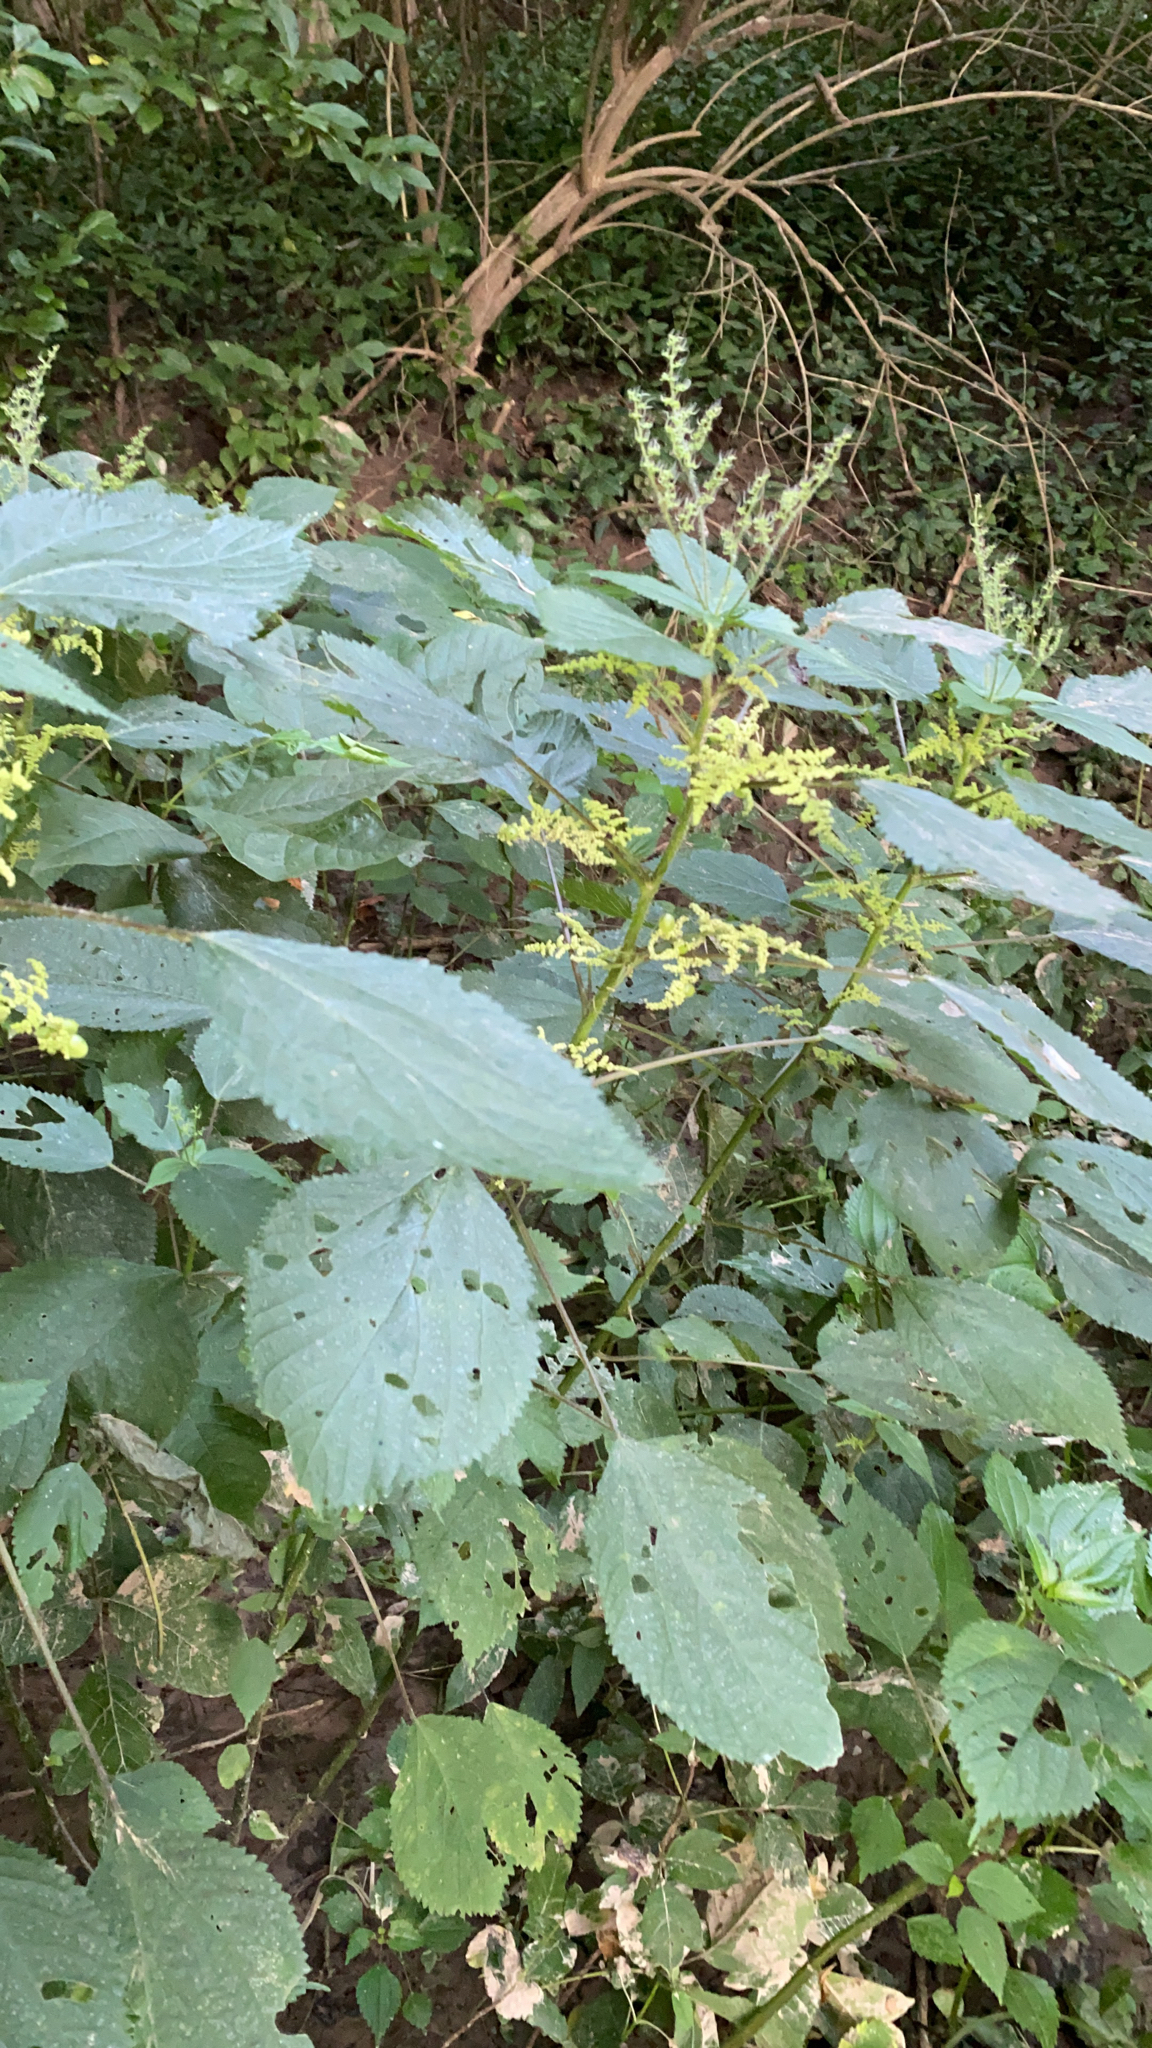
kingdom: Plantae
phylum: Tracheophyta
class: Magnoliopsida
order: Rosales
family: Urticaceae
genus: Laportea
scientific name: Laportea canadensis
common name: Canada nettle
